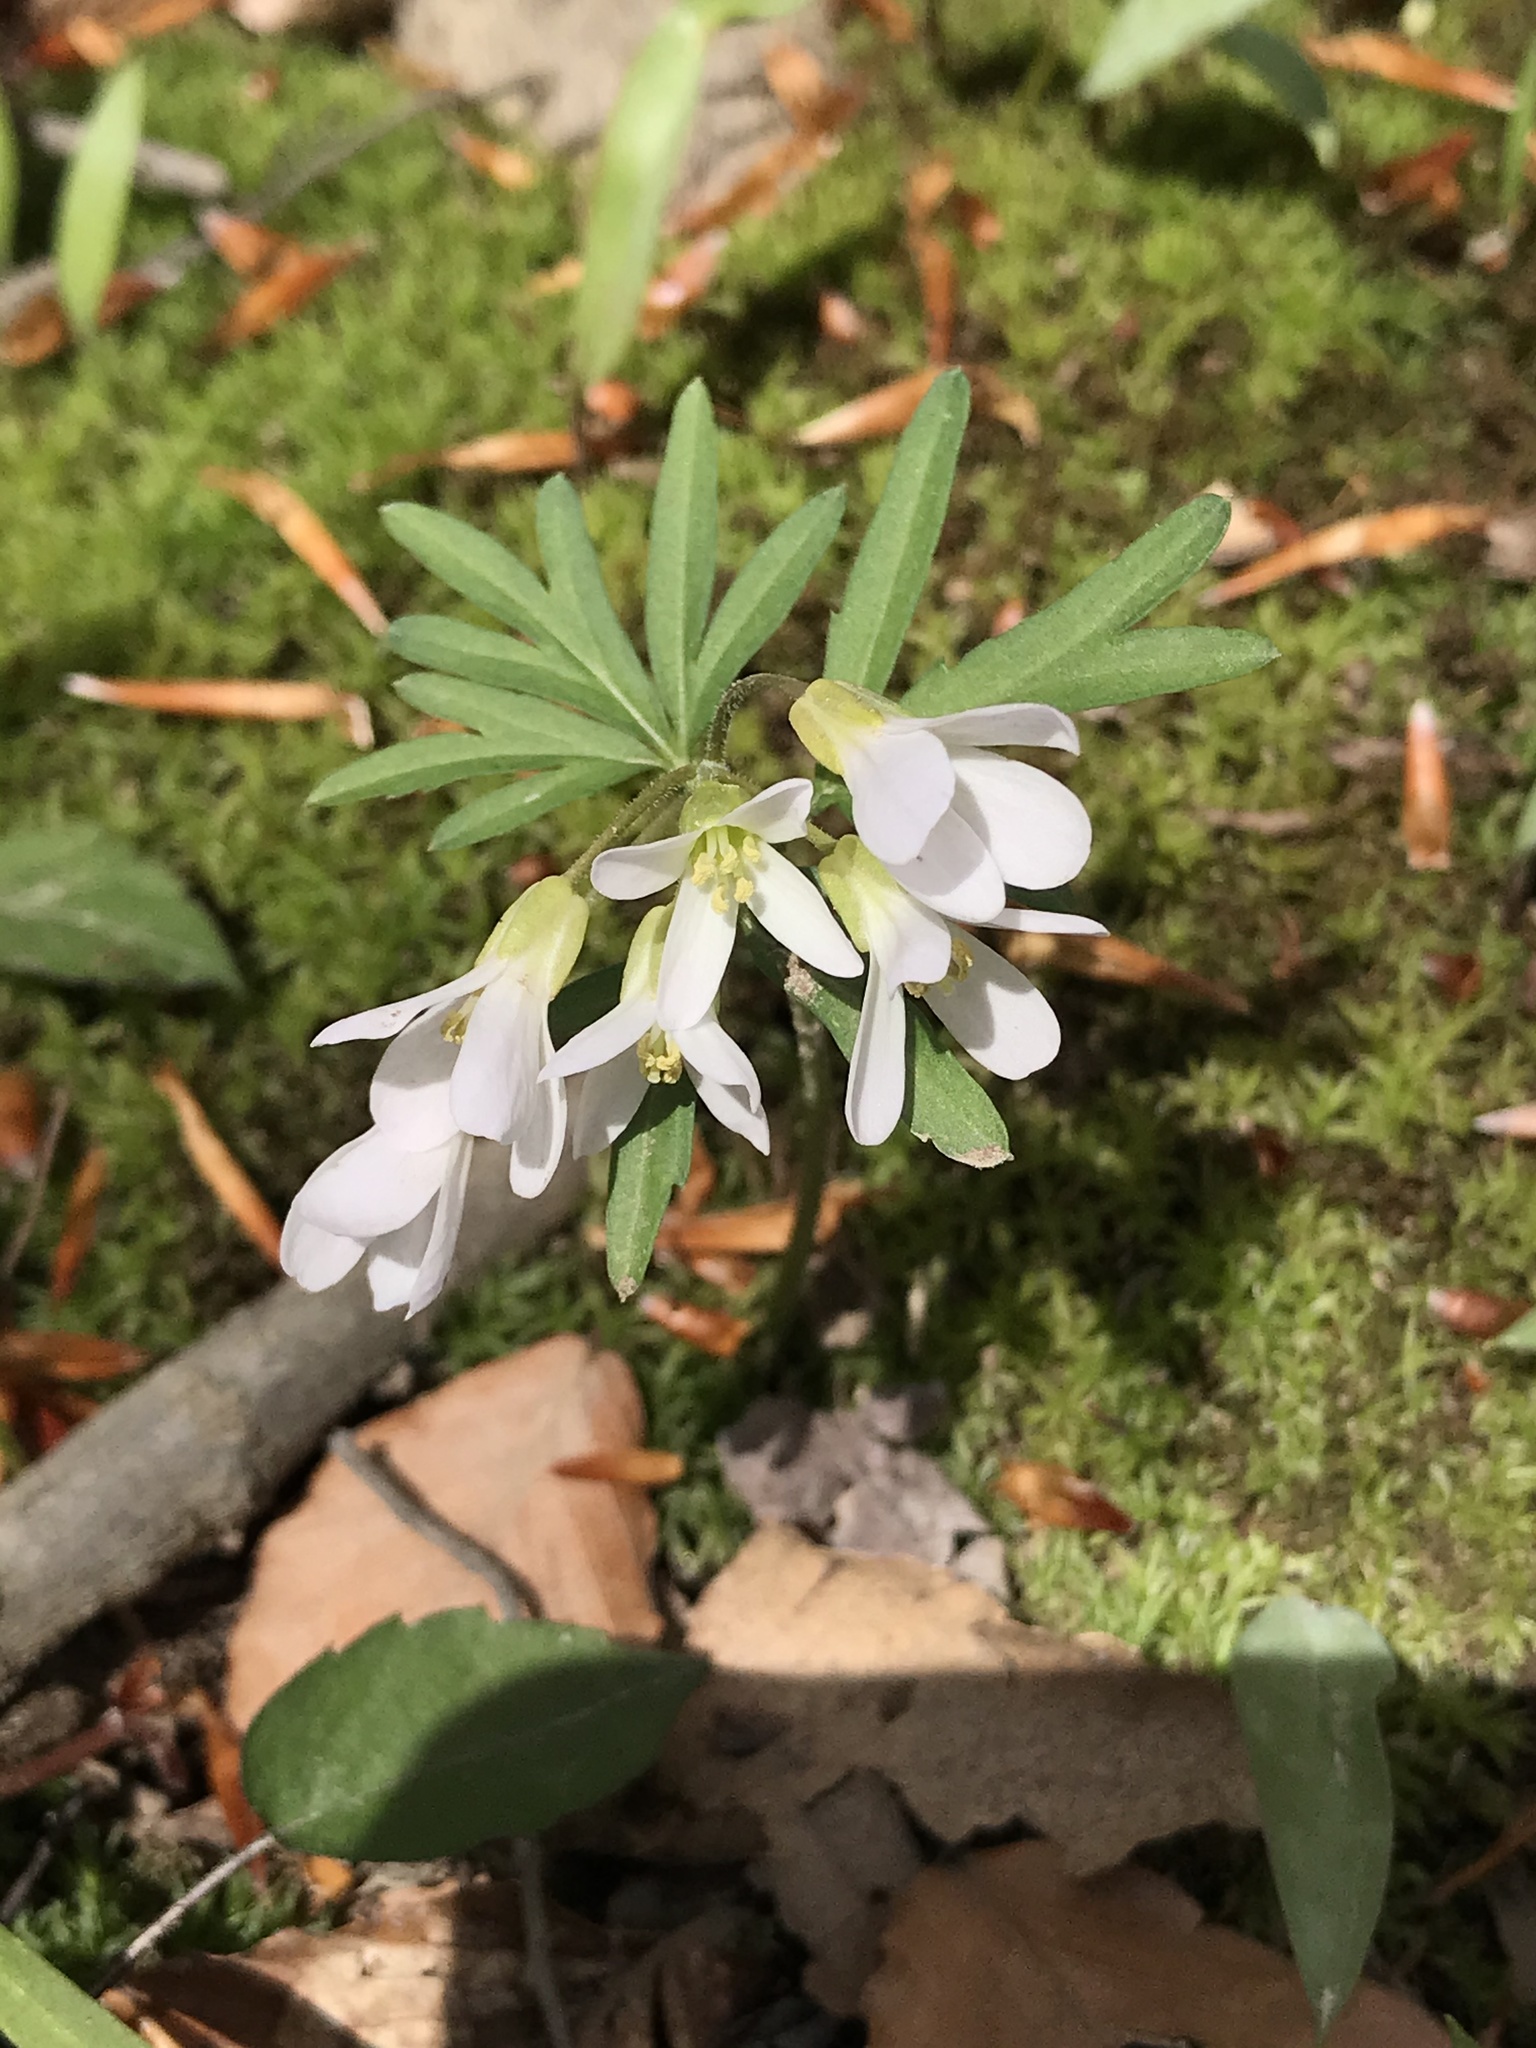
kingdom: Plantae
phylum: Tracheophyta
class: Magnoliopsida
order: Brassicales
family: Brassicaceae
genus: Cardamine
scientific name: Cardamine concatenata
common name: Cut-leaf toothcup
